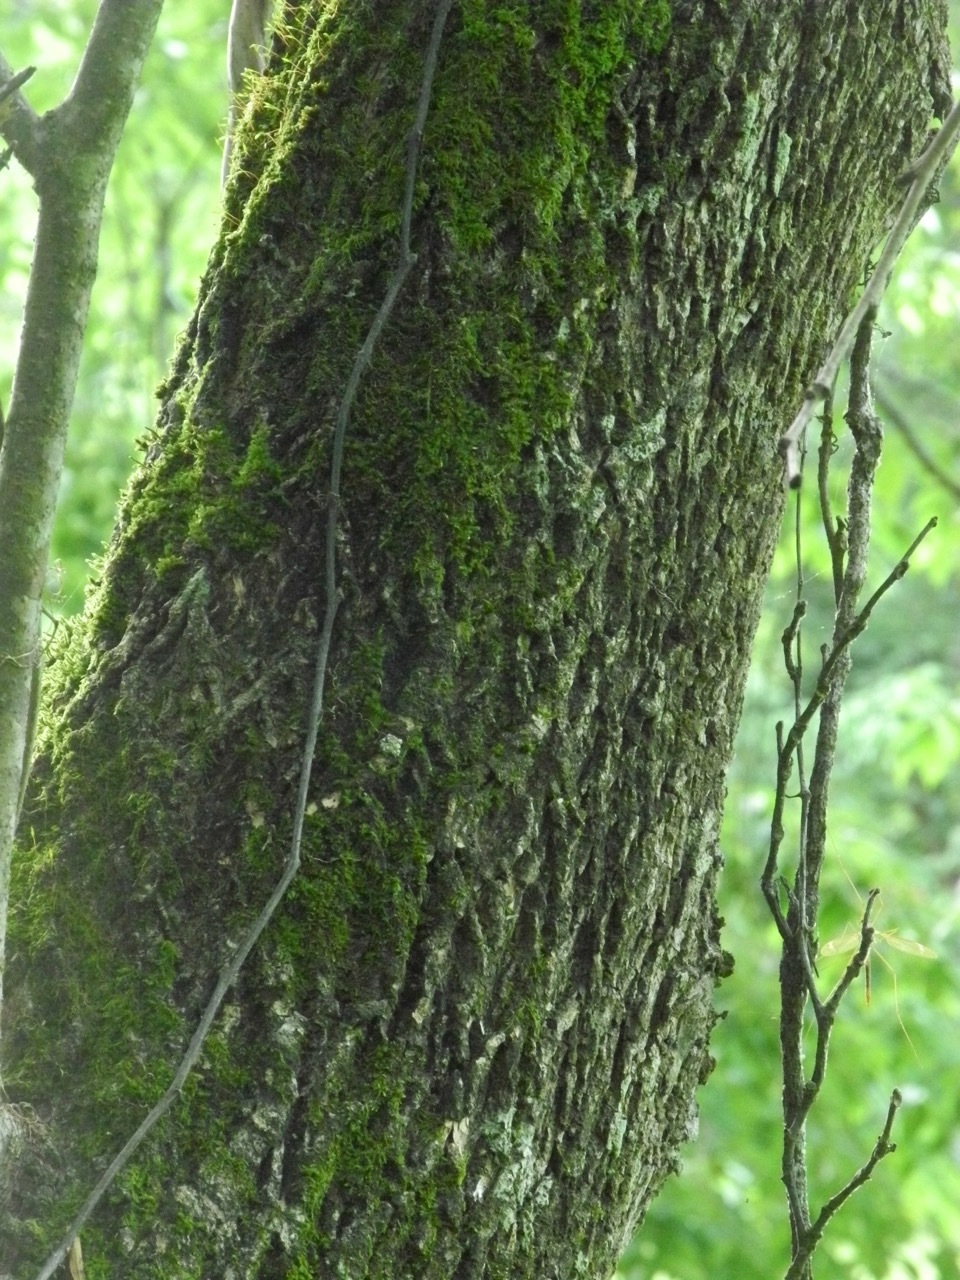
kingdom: Plantae
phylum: Tracheophyta
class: Magnoliopsida
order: Lamiales
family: Oleaceae
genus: Fraxinus
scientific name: Fraxinus americana
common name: White ash
